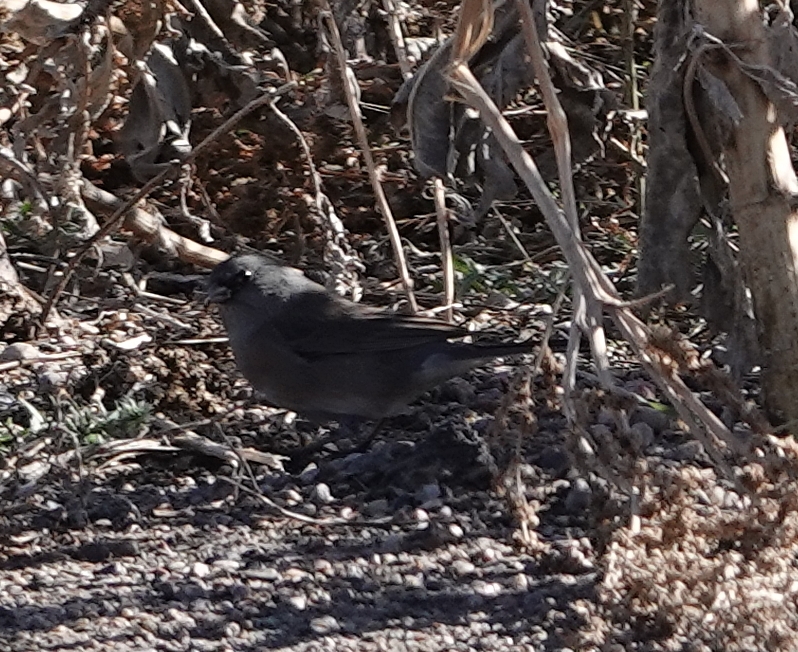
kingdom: Animalia
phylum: Chordata
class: Aves
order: Passeriformes
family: Passerellidae
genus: Junco
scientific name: Junco hyemalis
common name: Dark-eyed junco
